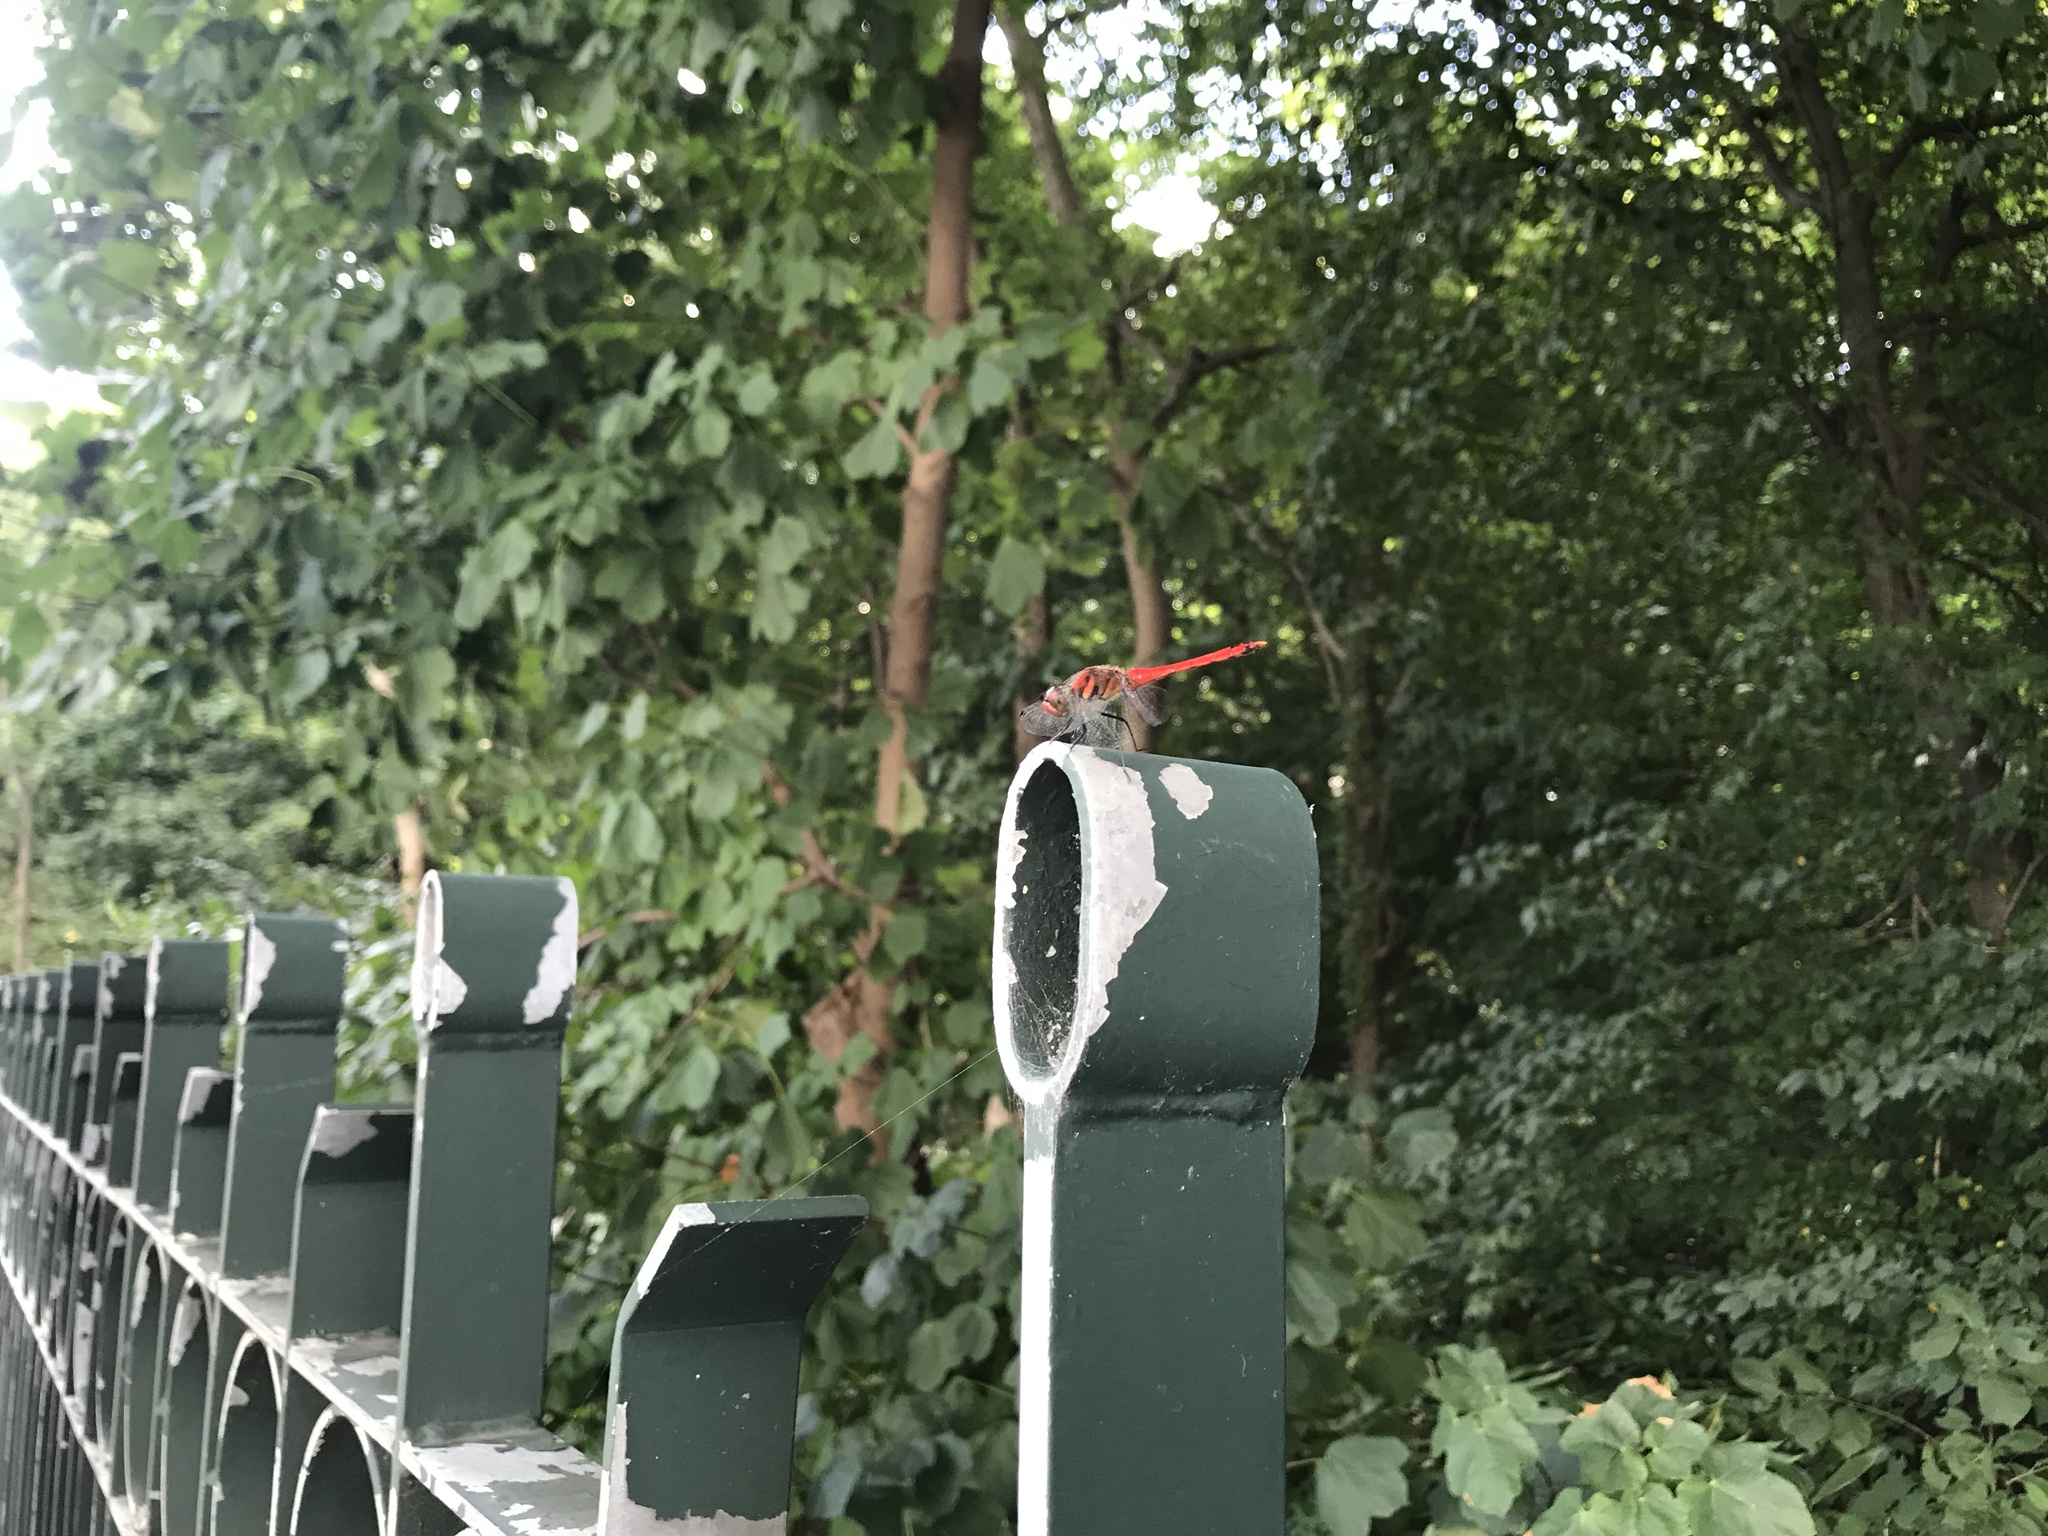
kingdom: Animalia
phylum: Arthropoda
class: Insecta
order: Odonata
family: Libellulidae
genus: Sympetrum
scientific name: Sympetrum darwinianum
